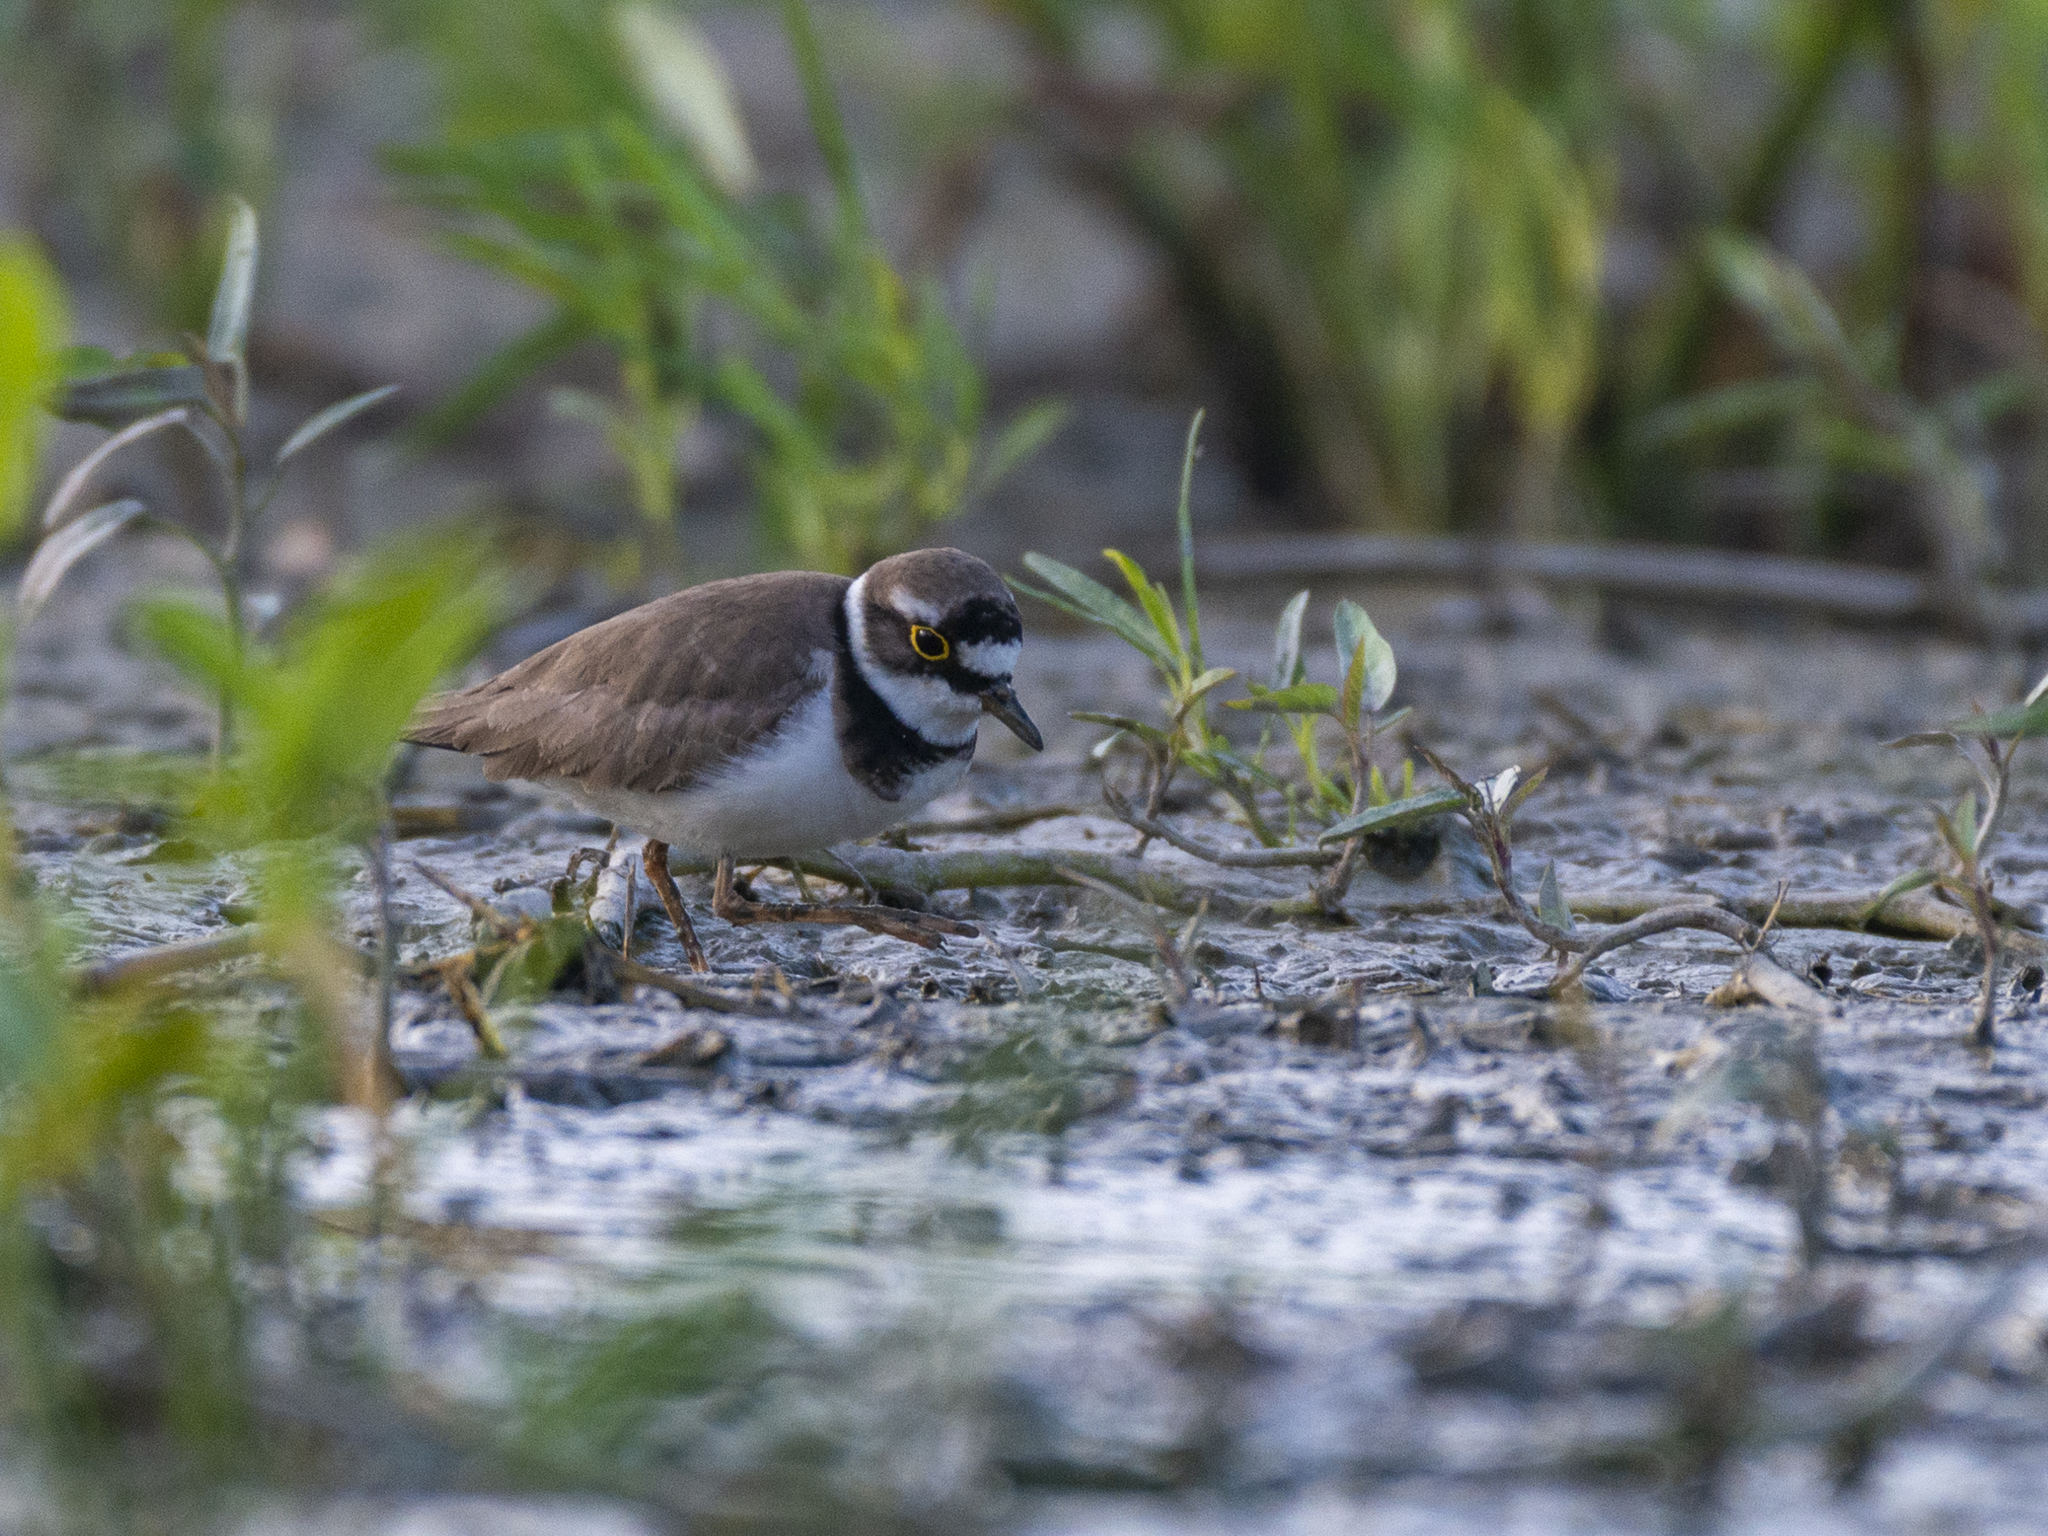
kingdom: Animalia
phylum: Chordata
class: Aves
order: Charadriiformes
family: Charadriidae
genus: Charadrius
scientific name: Charadrius dubius
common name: Little ringed plover
